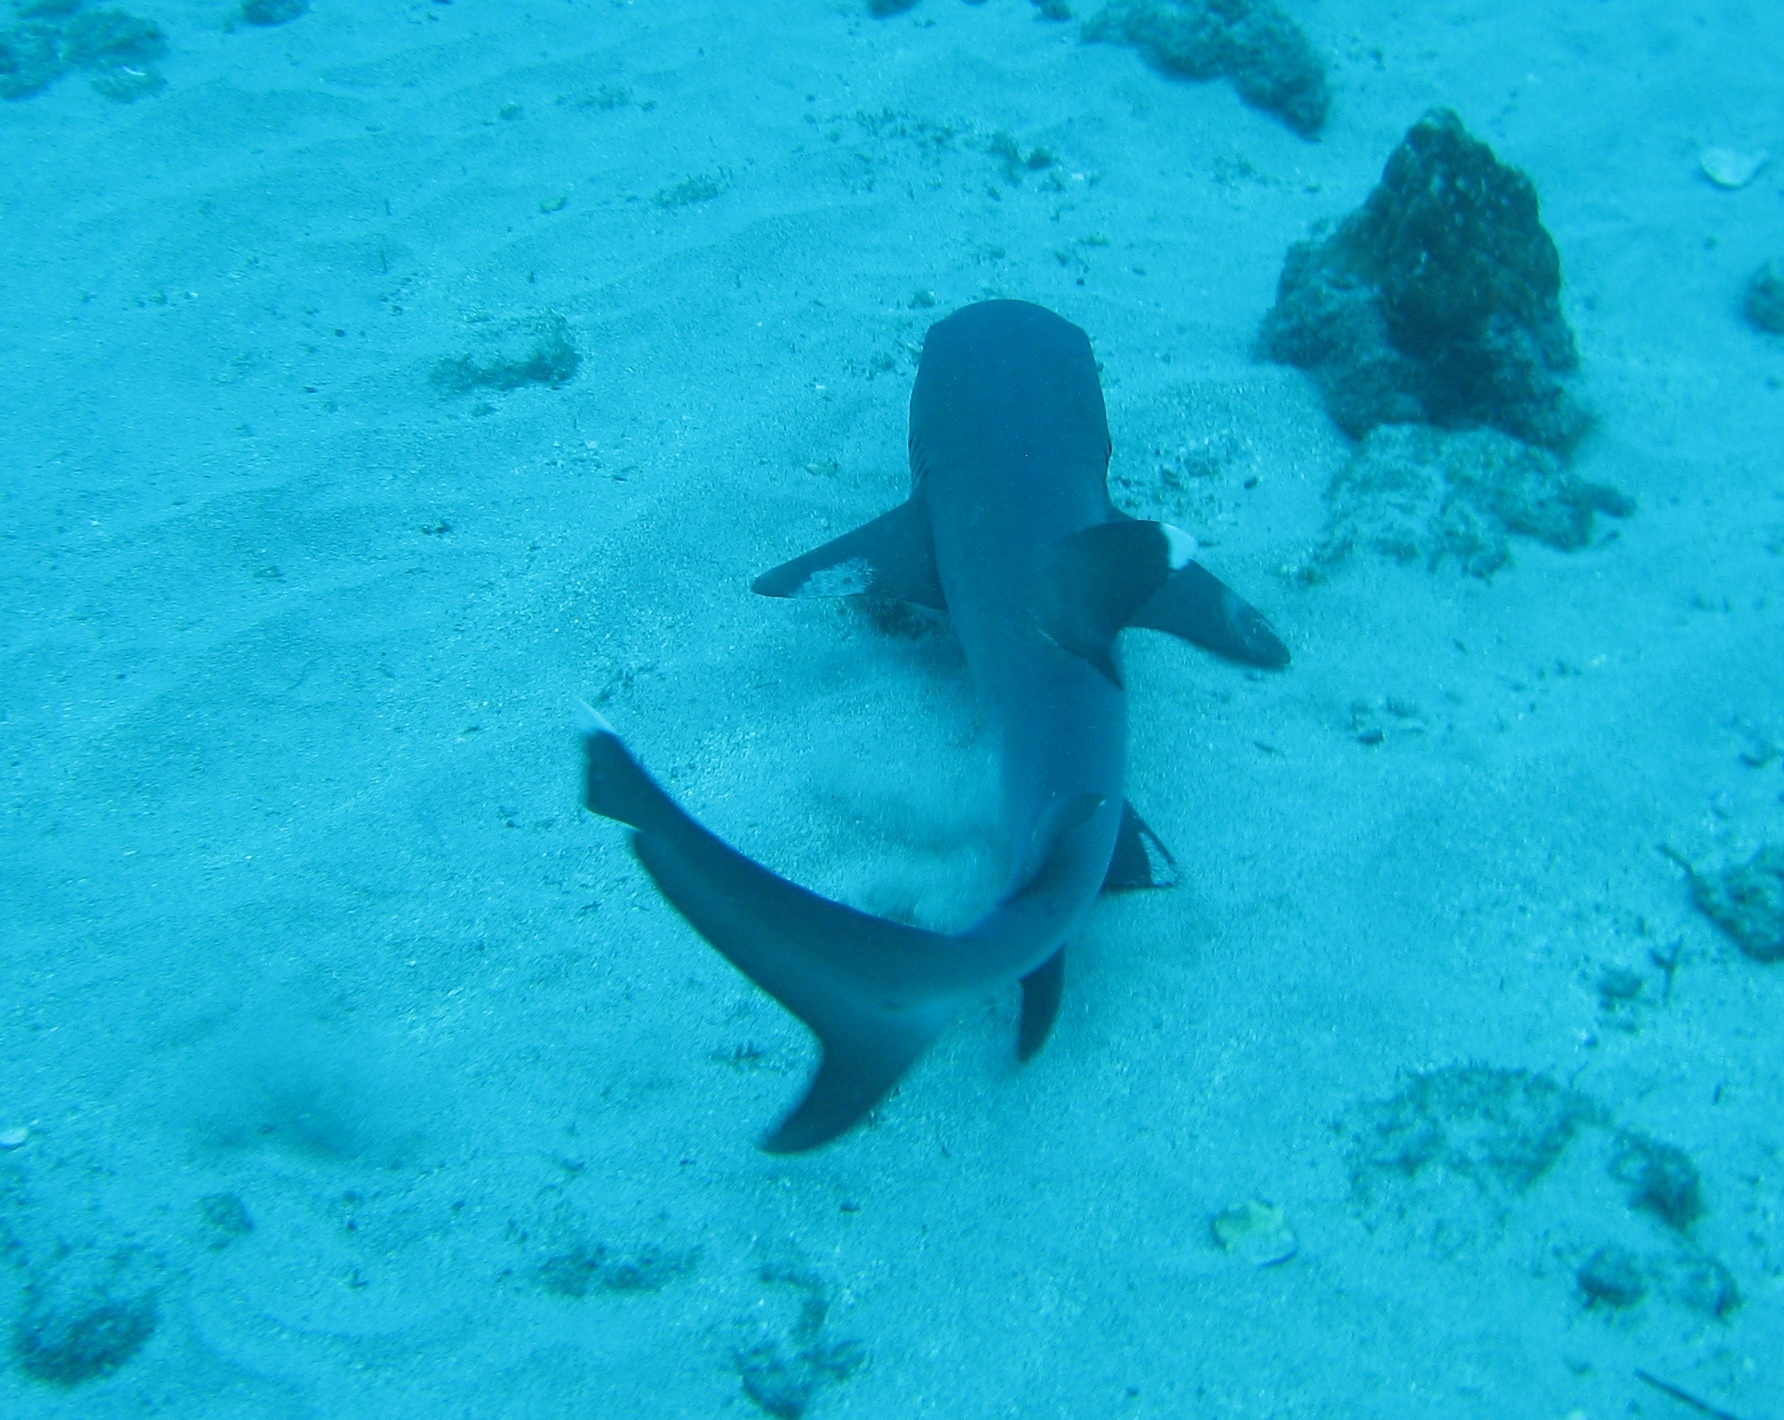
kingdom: Animalia
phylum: Chordata
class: Elasmobranchii
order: Carcharhiniformes
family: Carcharhinidae
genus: Triaenodon
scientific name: Triaenodon obesus
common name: Whitetip reef shark
